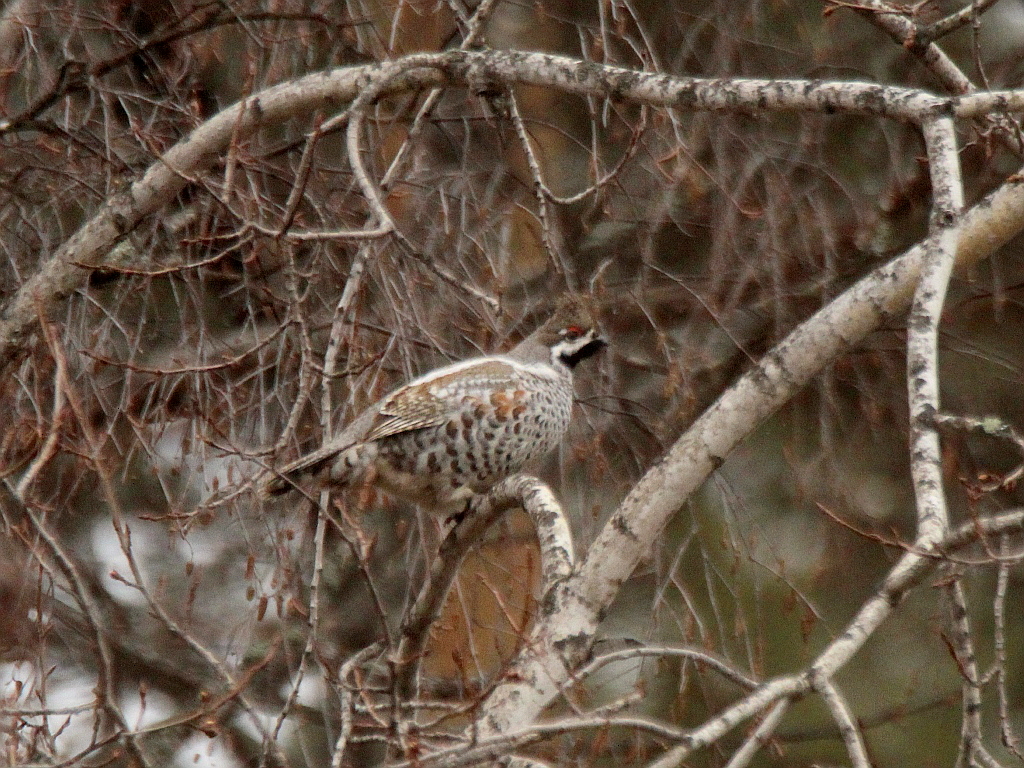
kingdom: Animalia
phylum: Chordata
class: Aves
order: Galliformes
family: Phasianidae
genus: Tetrastes
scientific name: Tetrastes bonasia
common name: Hazel grouse
